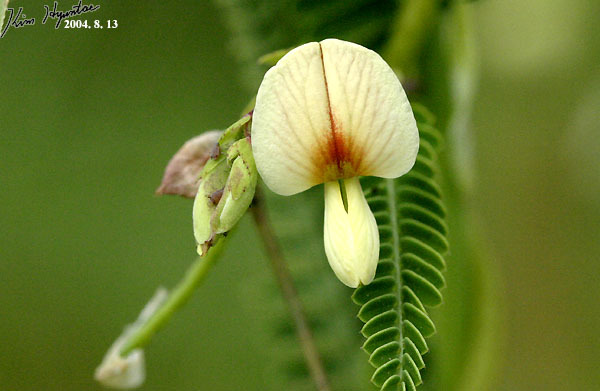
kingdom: Plantae
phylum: Tracheophyta
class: Magnoliopsida
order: Fabales
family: Fabaceae
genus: Aeschynomene
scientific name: Aeschynomene indica
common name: Indian jointvetch
